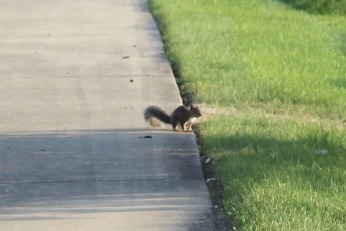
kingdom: Animalia
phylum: Chordata
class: Mammalia
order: Rodentia
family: Sciuridae
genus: Sciurus
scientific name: Sciurus carolinensis
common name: Eastern gray squirrel
